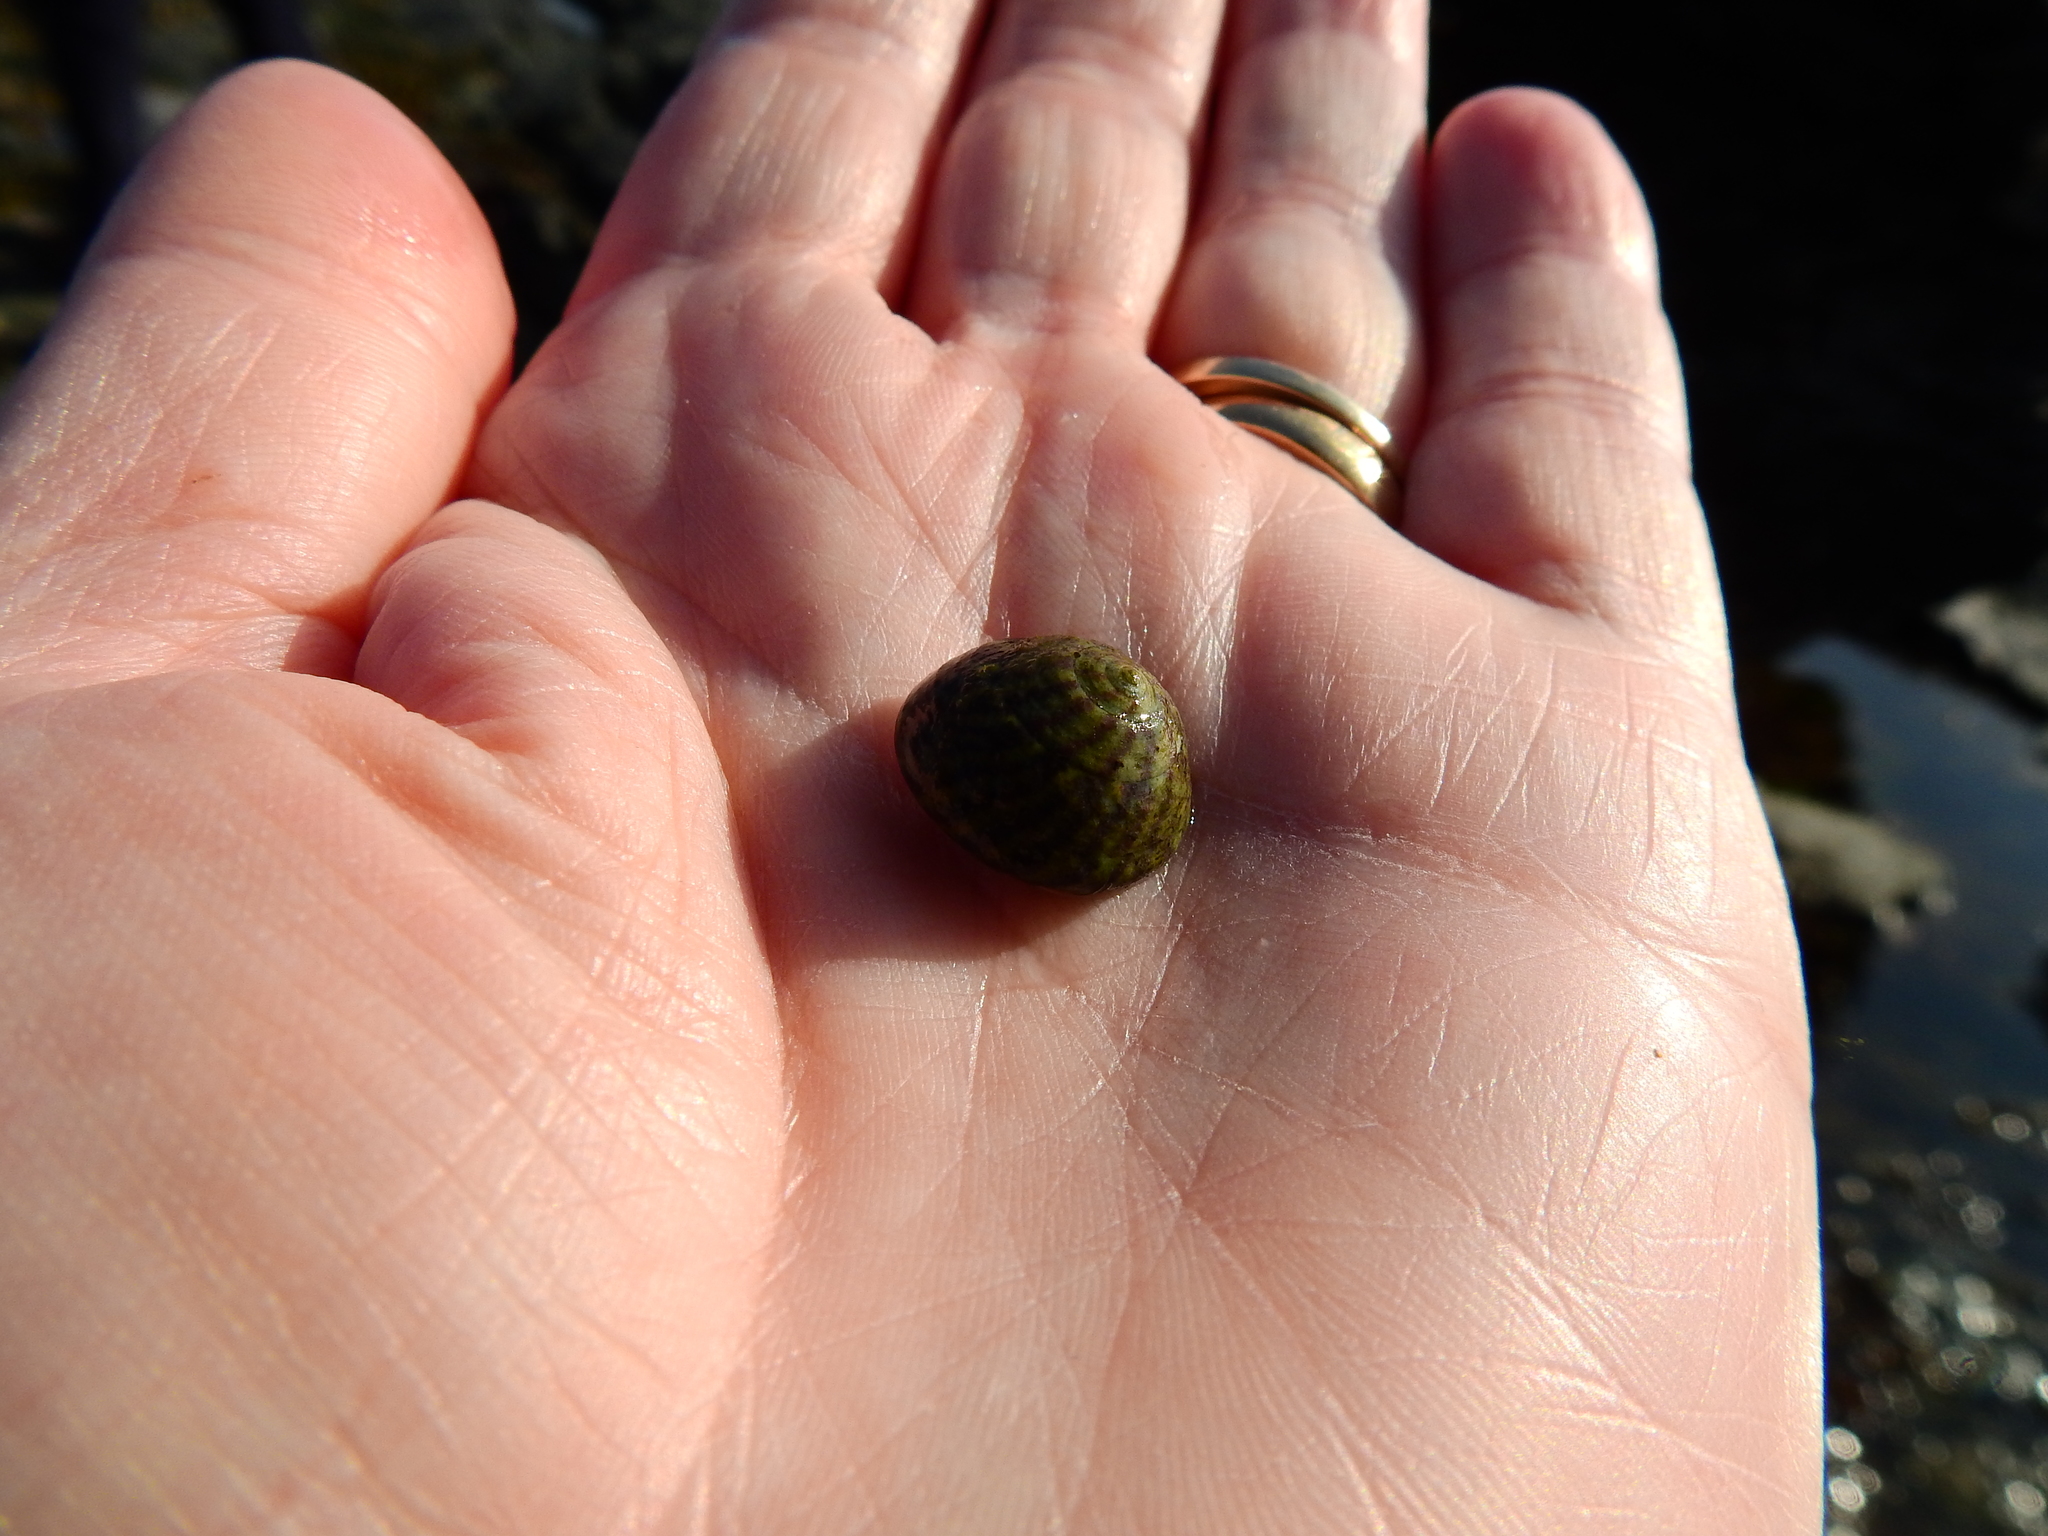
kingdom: Animalia
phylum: Mollusca
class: Gastropoda
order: Trochida
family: Trochidae
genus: Steromphala
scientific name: Steromphala umbilicalis
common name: Flat top shell
